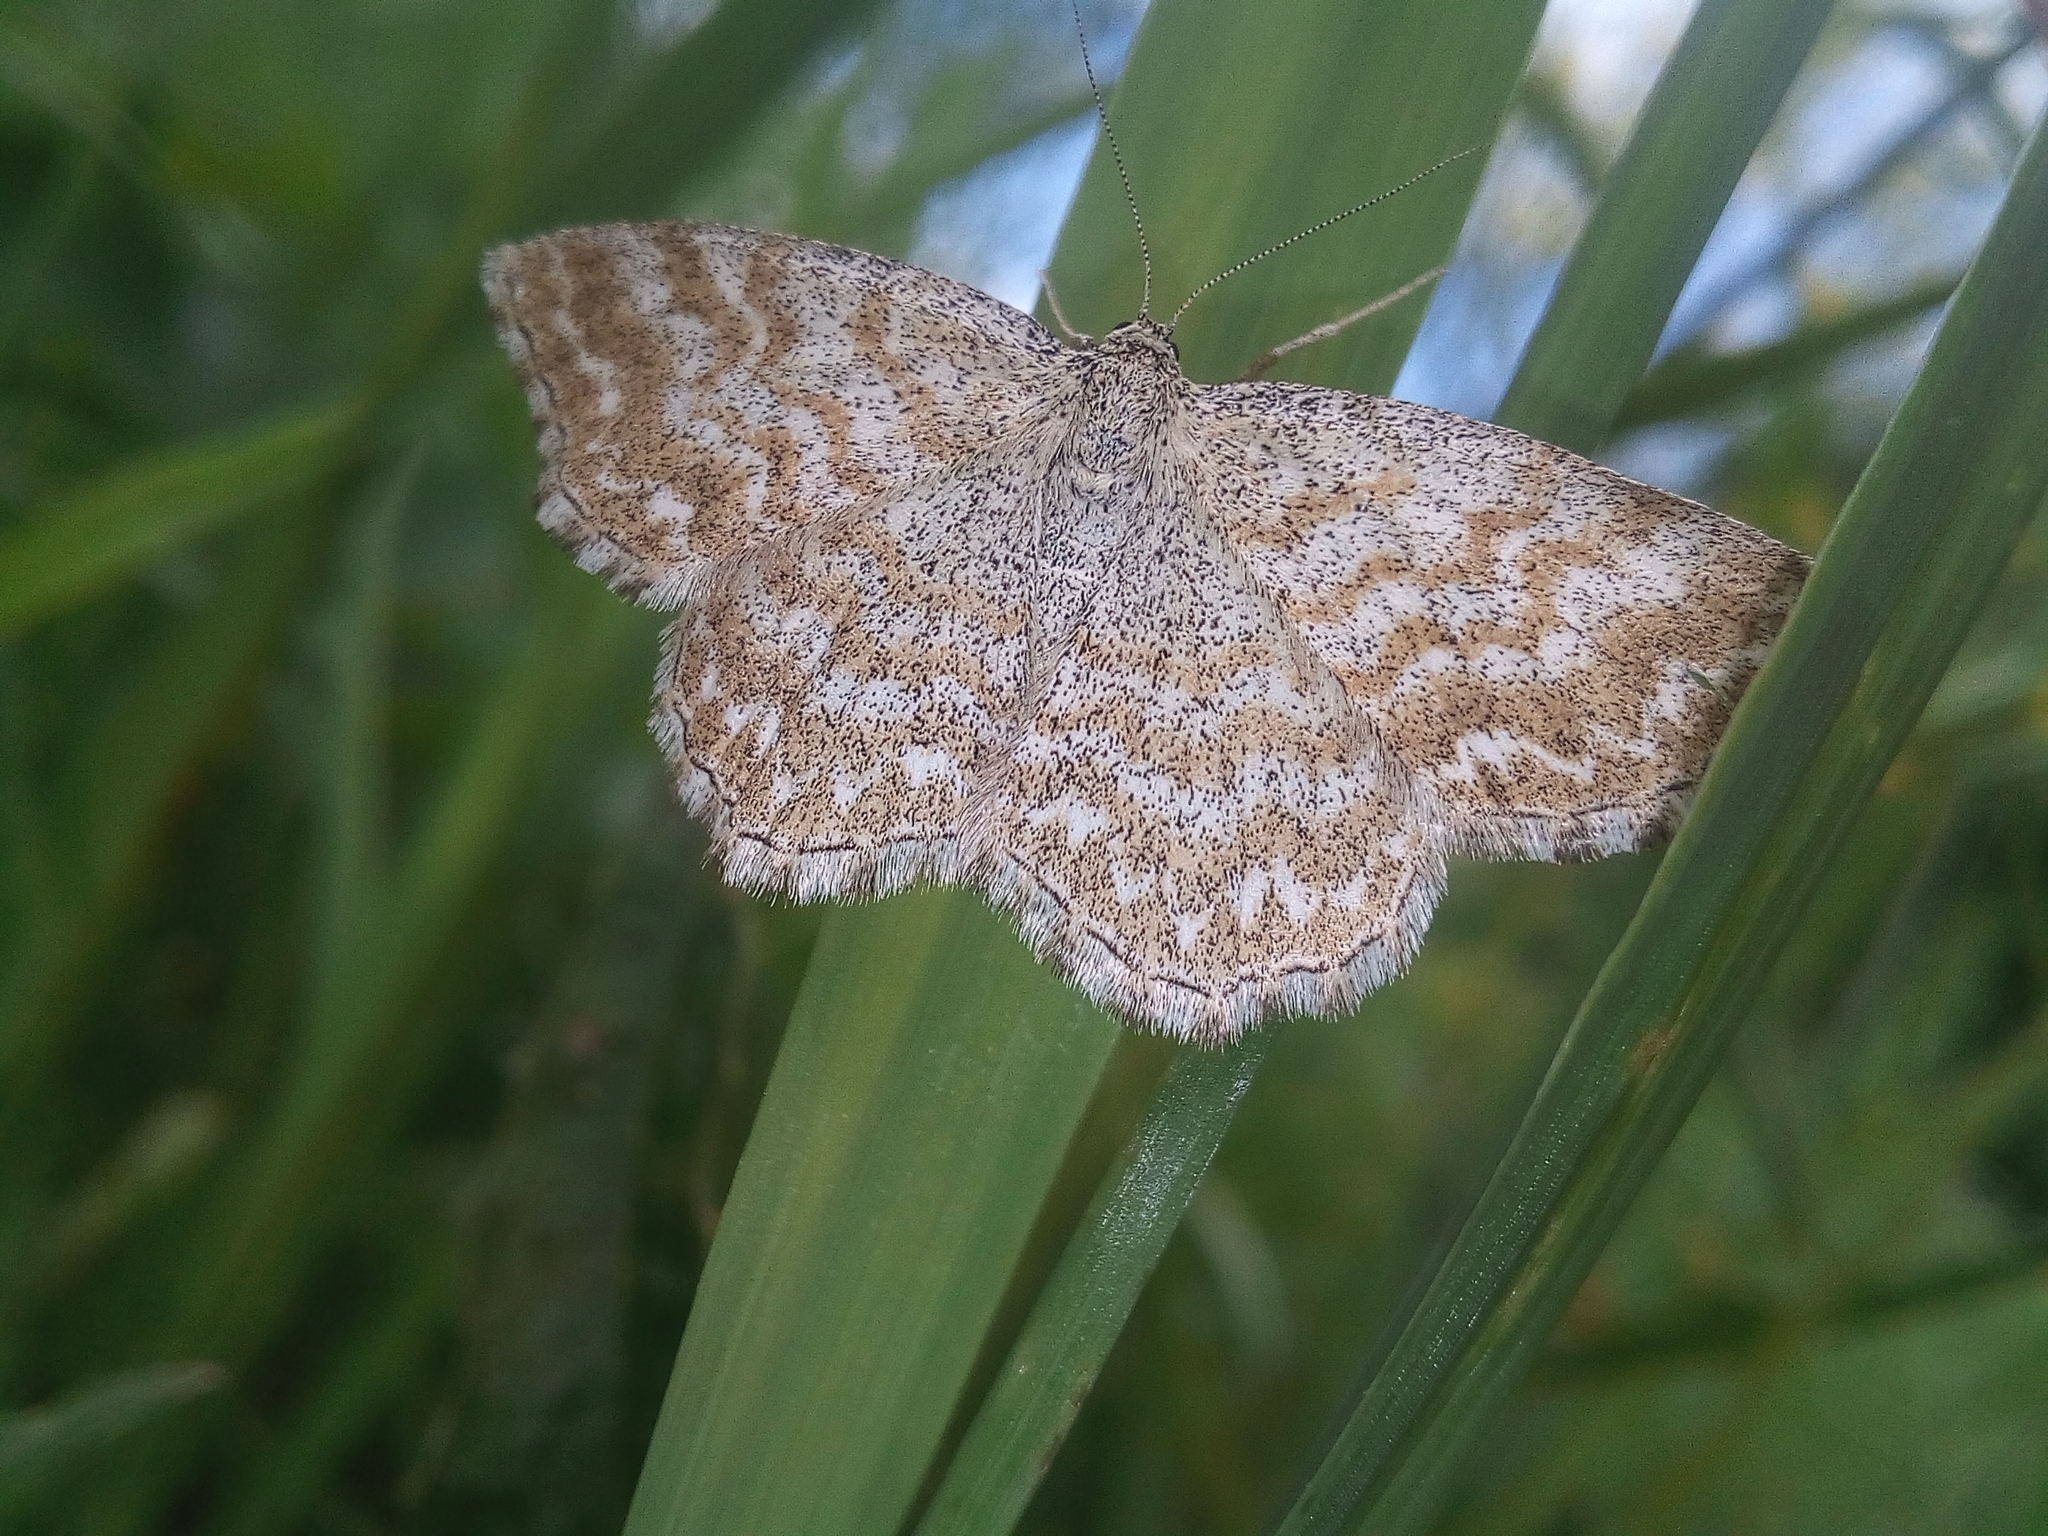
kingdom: Animalia
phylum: Arthropoda
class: Insecta
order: Lepidoptera
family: Geometridae
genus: Scopula
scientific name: Scopula immorata
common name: Lewes wave
